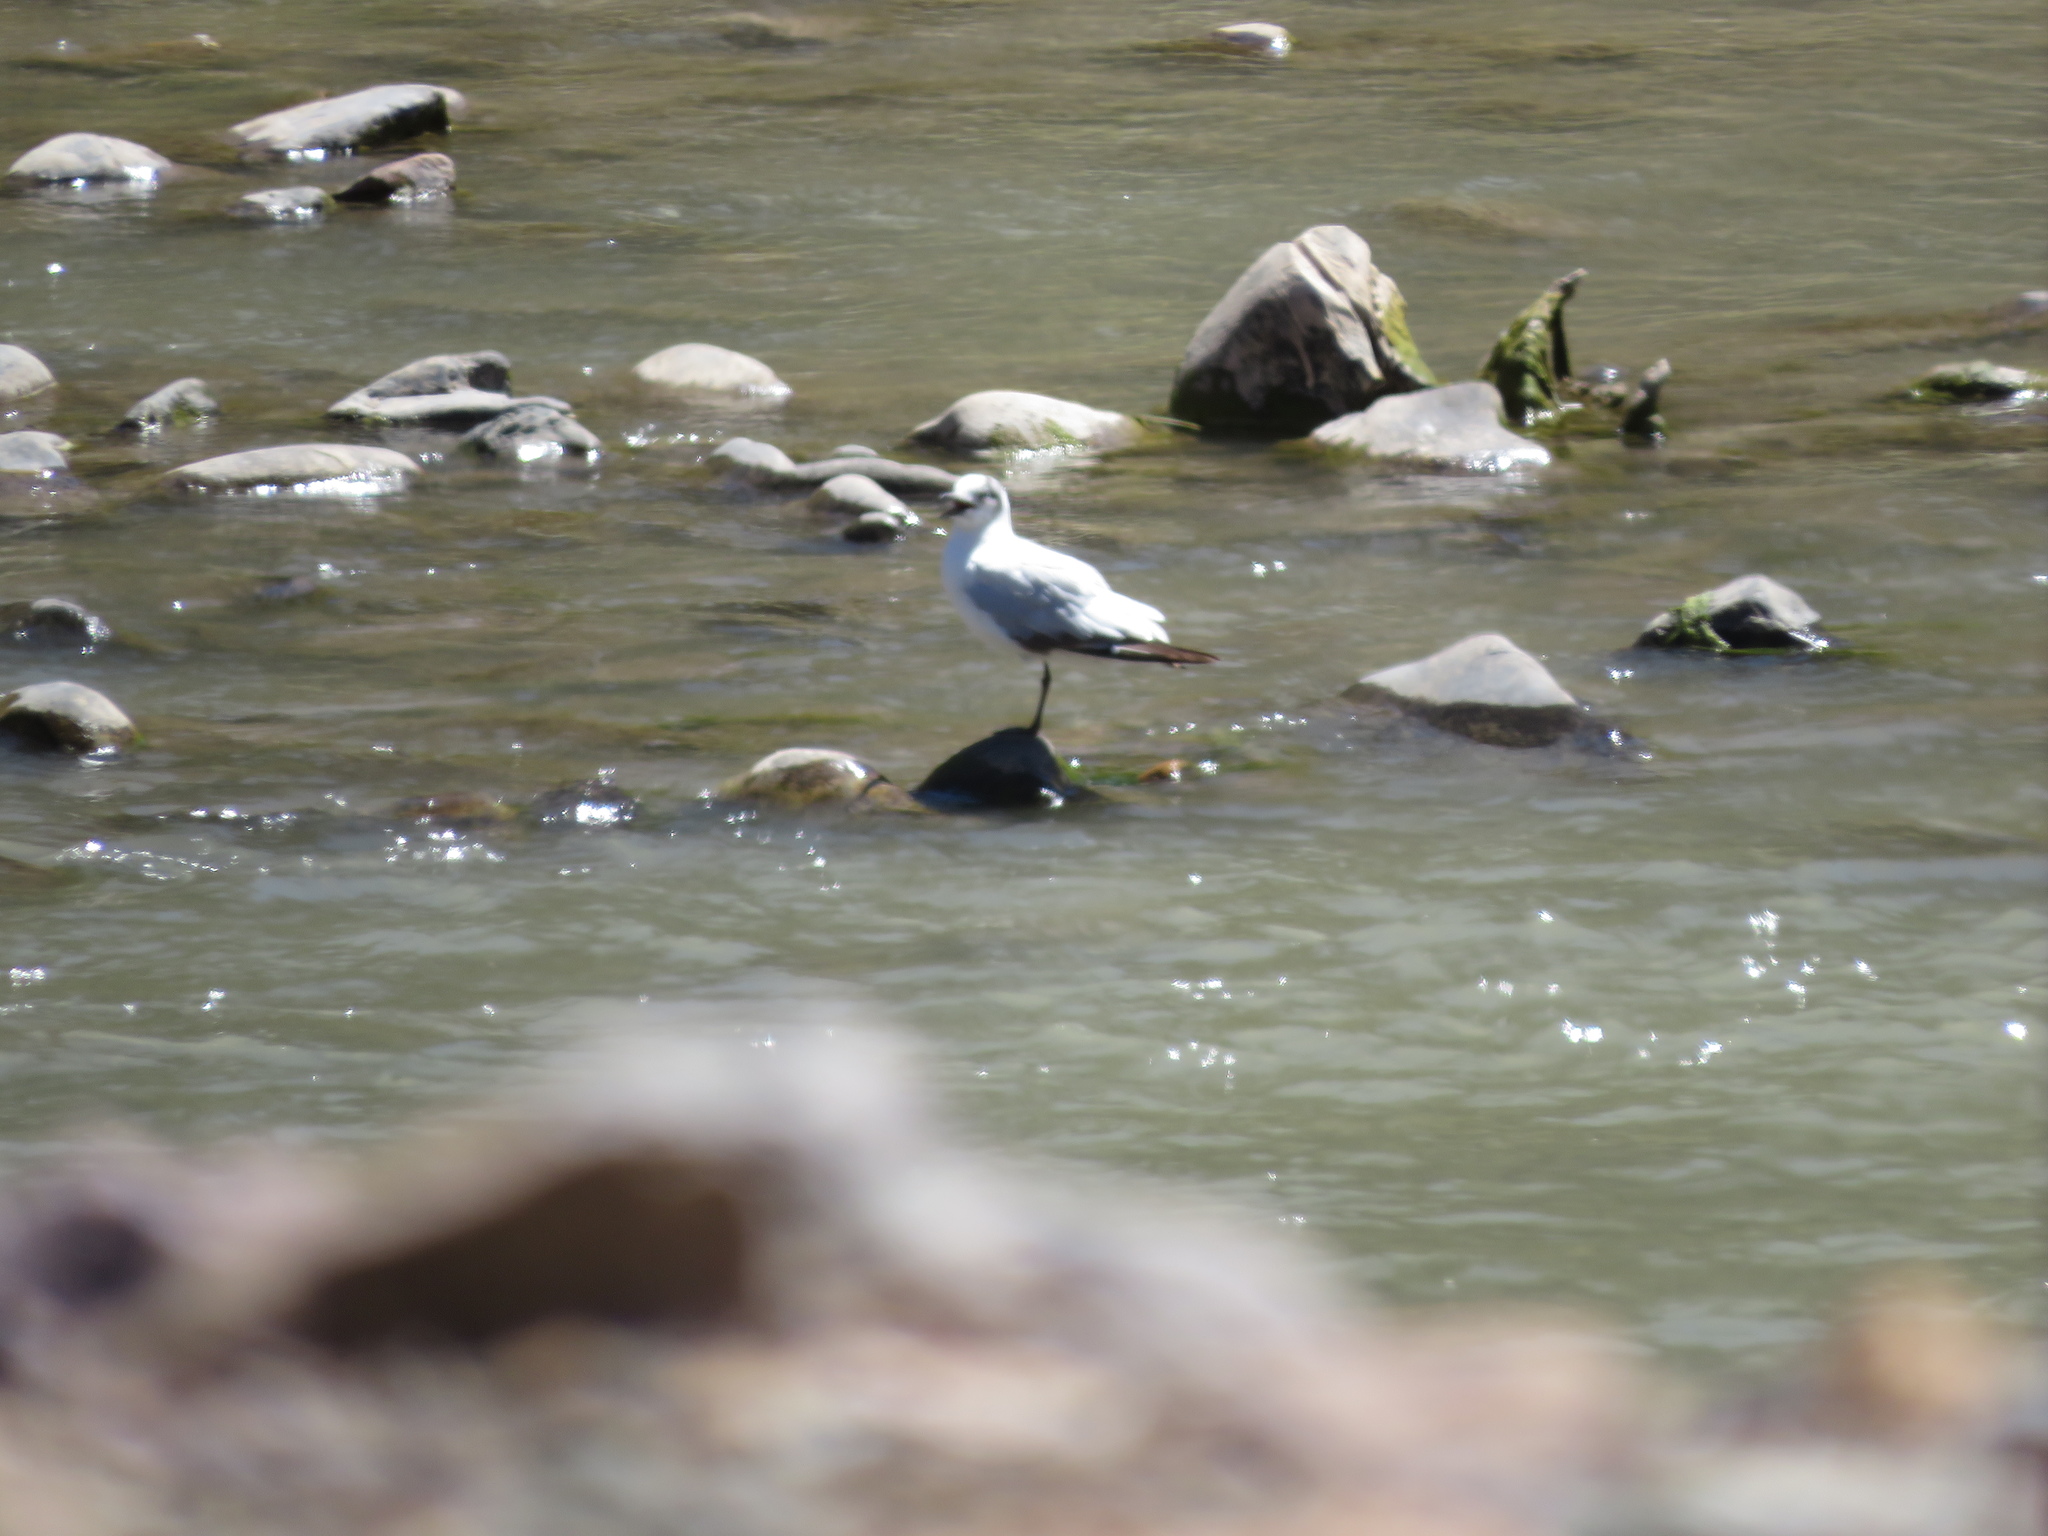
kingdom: Animalia
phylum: Chordata
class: Aves
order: Charadriiformes
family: Laridae
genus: Chroicocephalus
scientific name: Chroicocephalus serranus
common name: Andean gull
